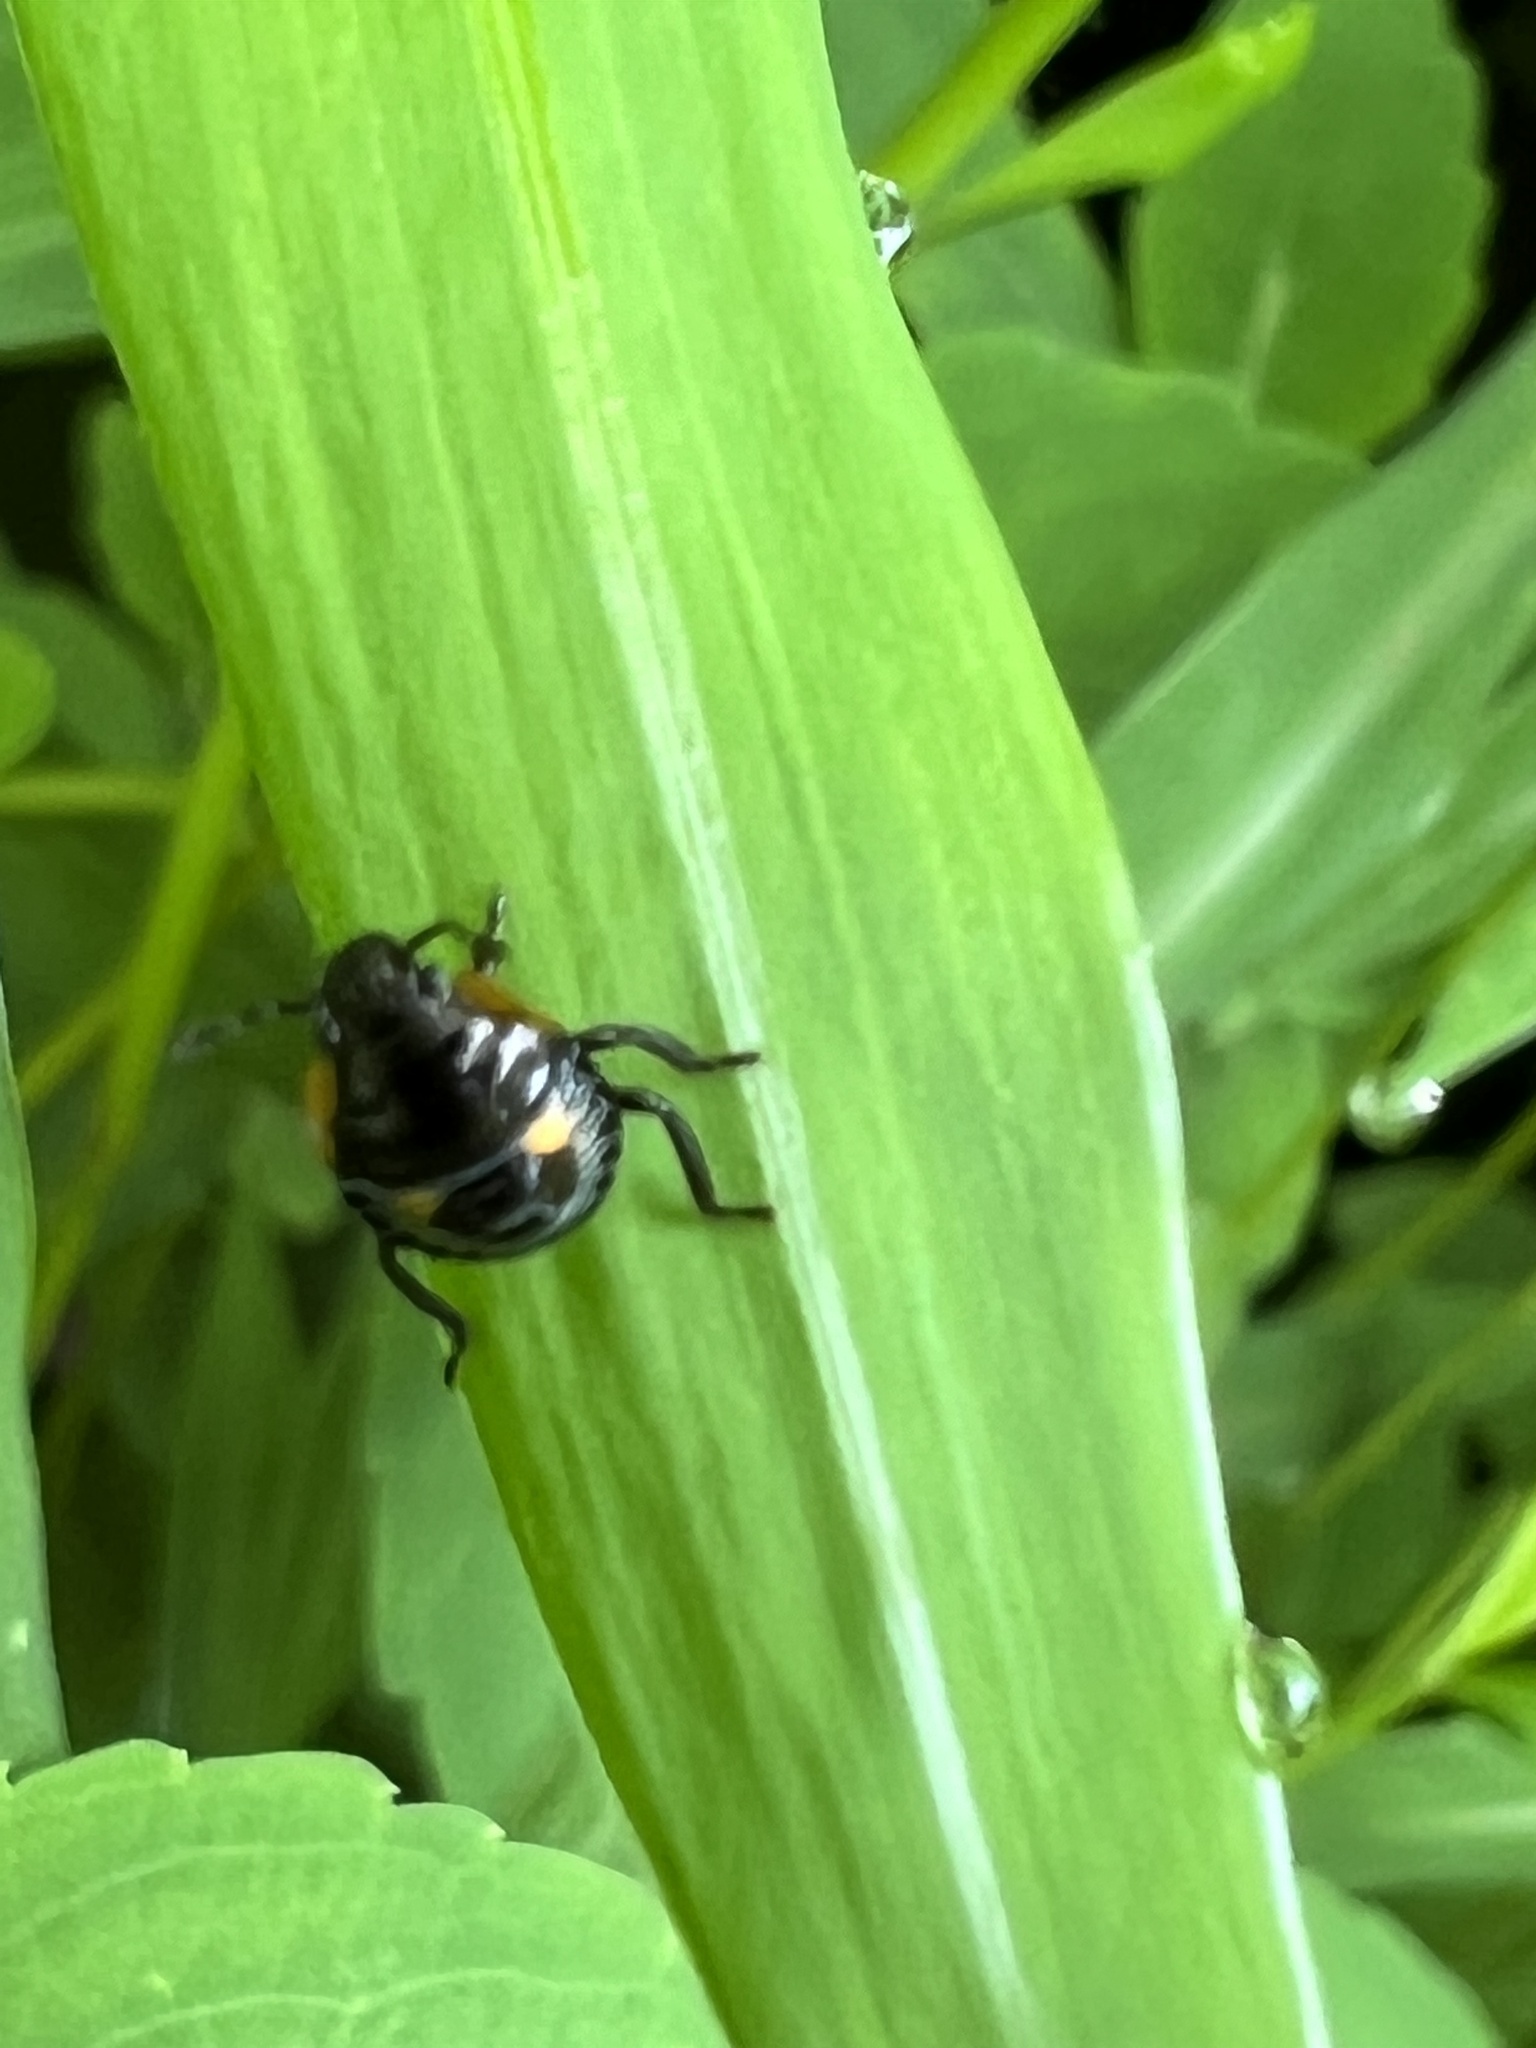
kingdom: Animalia
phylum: Arthropoda
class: Insecta
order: Hemiptera
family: Pentatomidae
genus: Chinavia
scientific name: Chinavia hilaris
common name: Green stink bug
